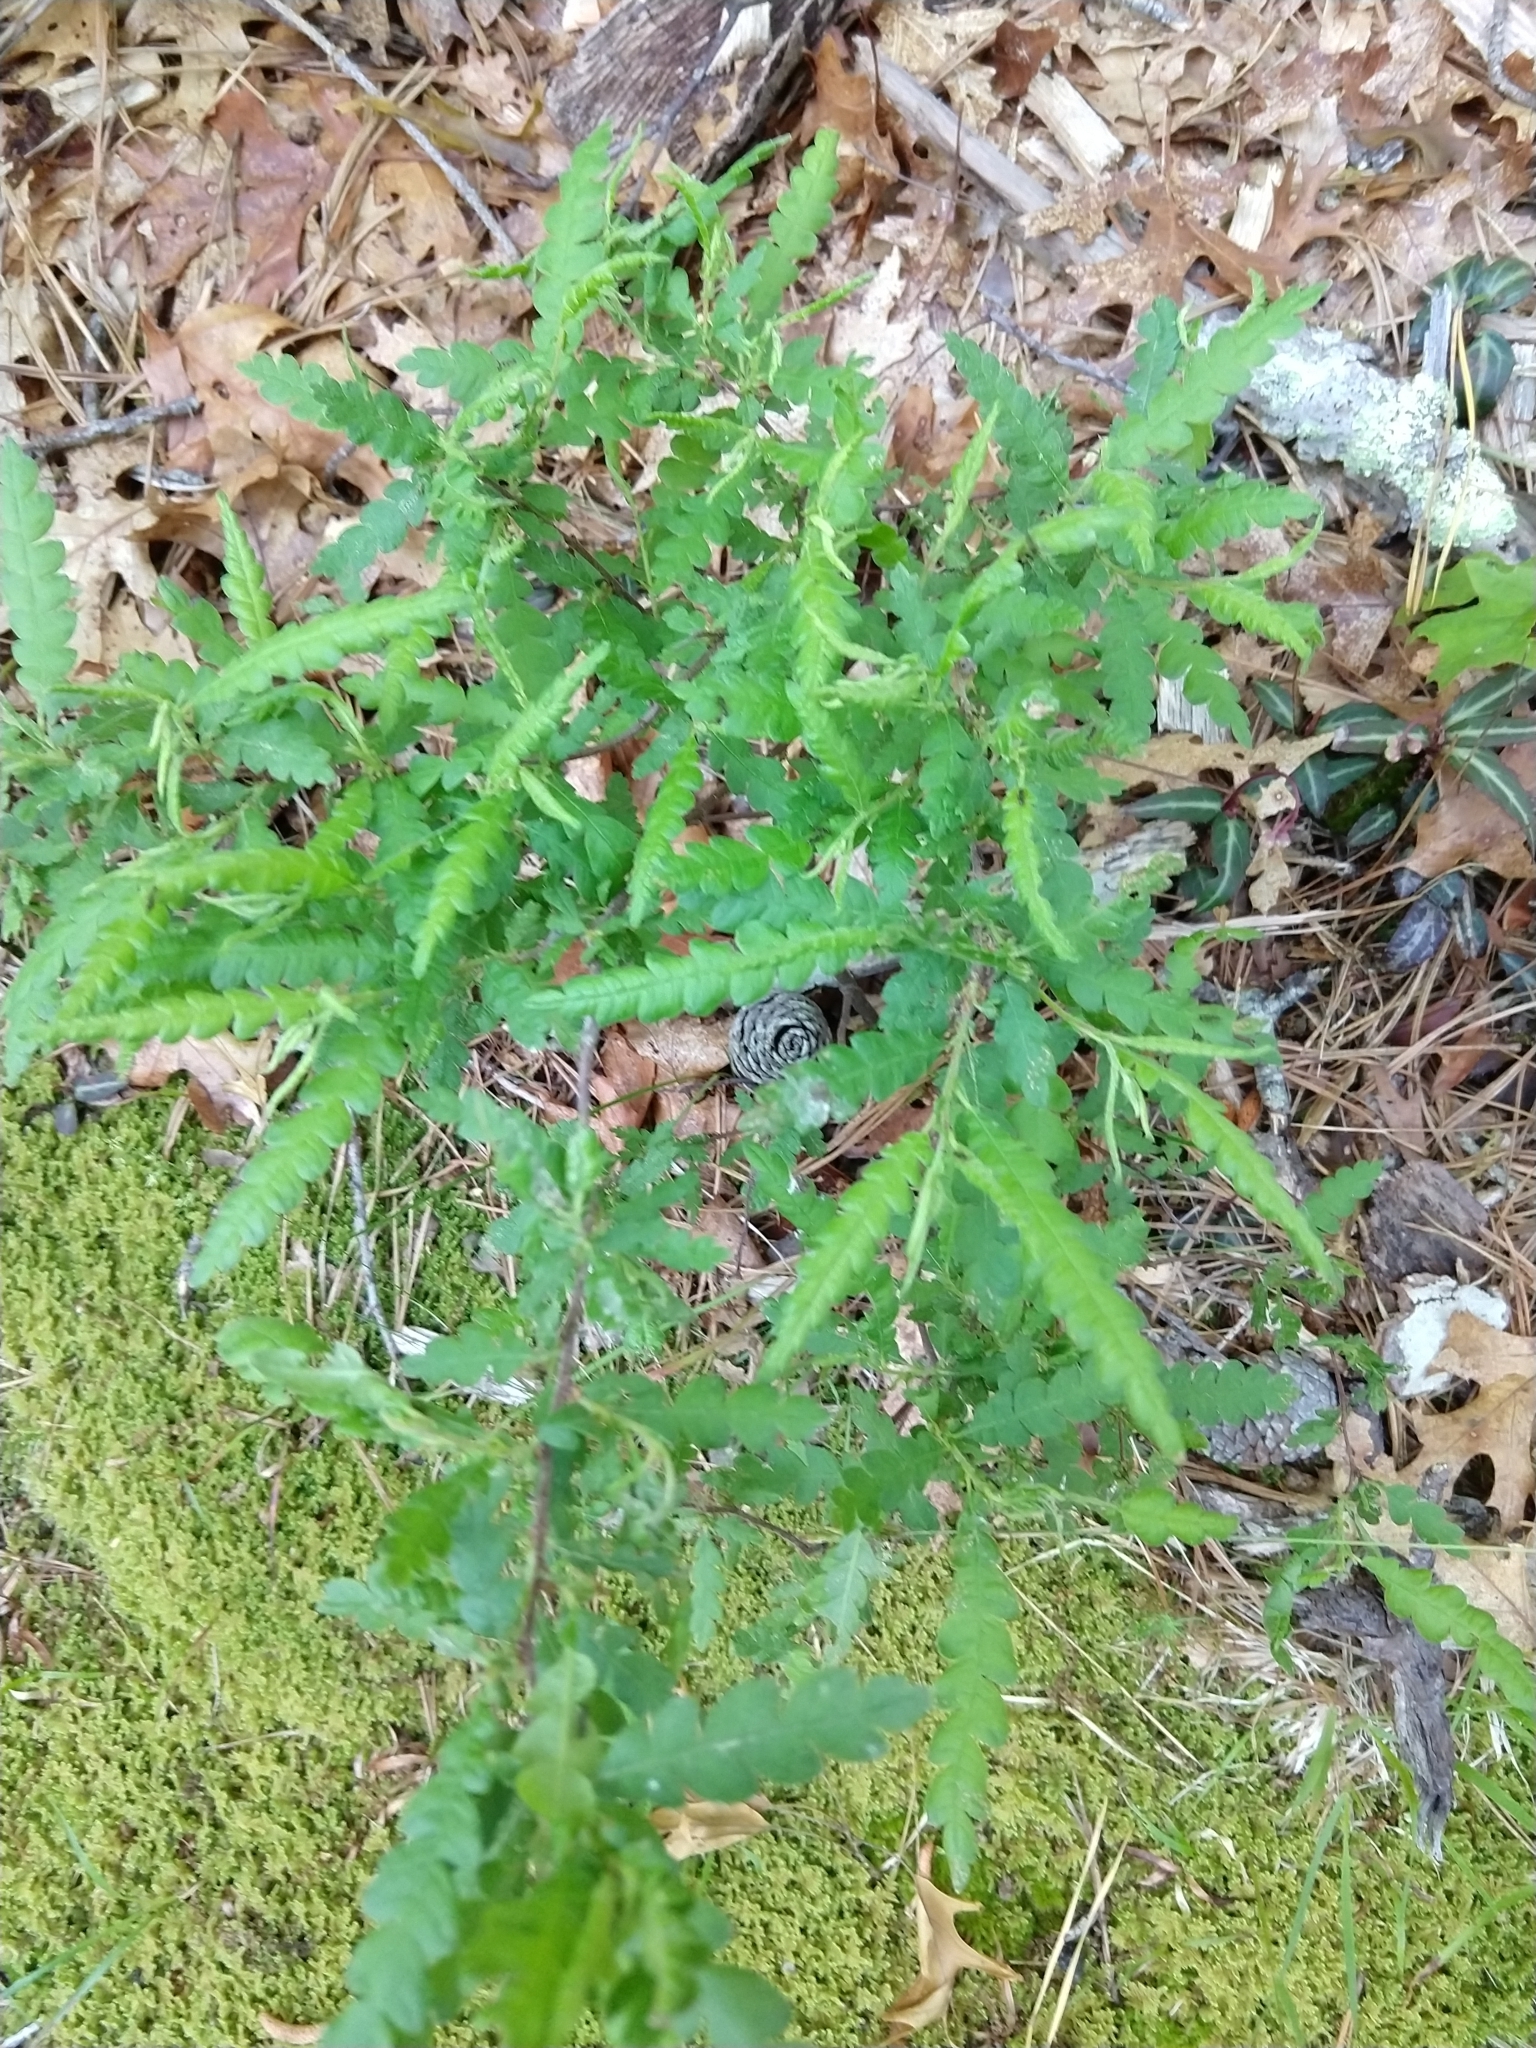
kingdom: Plantae
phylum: Tracheophyta
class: Magnoliopsida
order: Fagales
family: Myricaceae
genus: Comptonia
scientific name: Comptonia peregrina
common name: Sweet-fern
